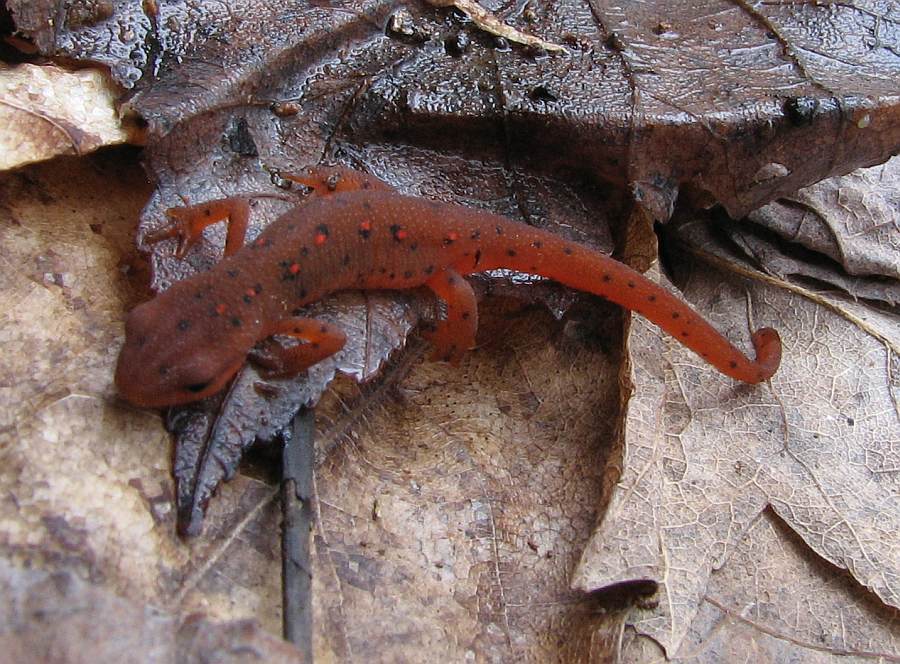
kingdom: Animalia
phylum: Chordata
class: Amphibia
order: Caudata
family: Salamandridae
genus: Notophthalmus
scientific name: Notophthalmus viridescens
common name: Eastern newt
